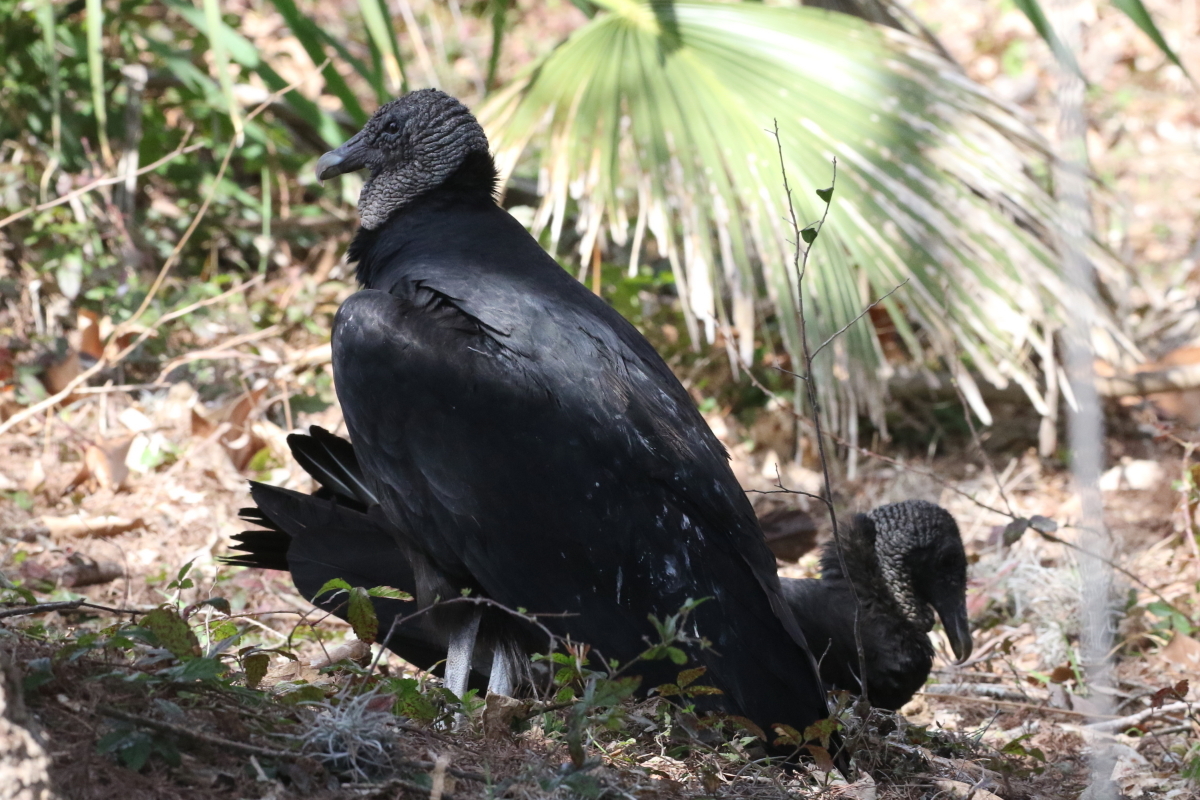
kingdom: Animalia
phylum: Chordata
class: Aves
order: Accipitriformes
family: Cathartidae
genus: Coragyps
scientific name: Coragyps atratus
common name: Black vulture
